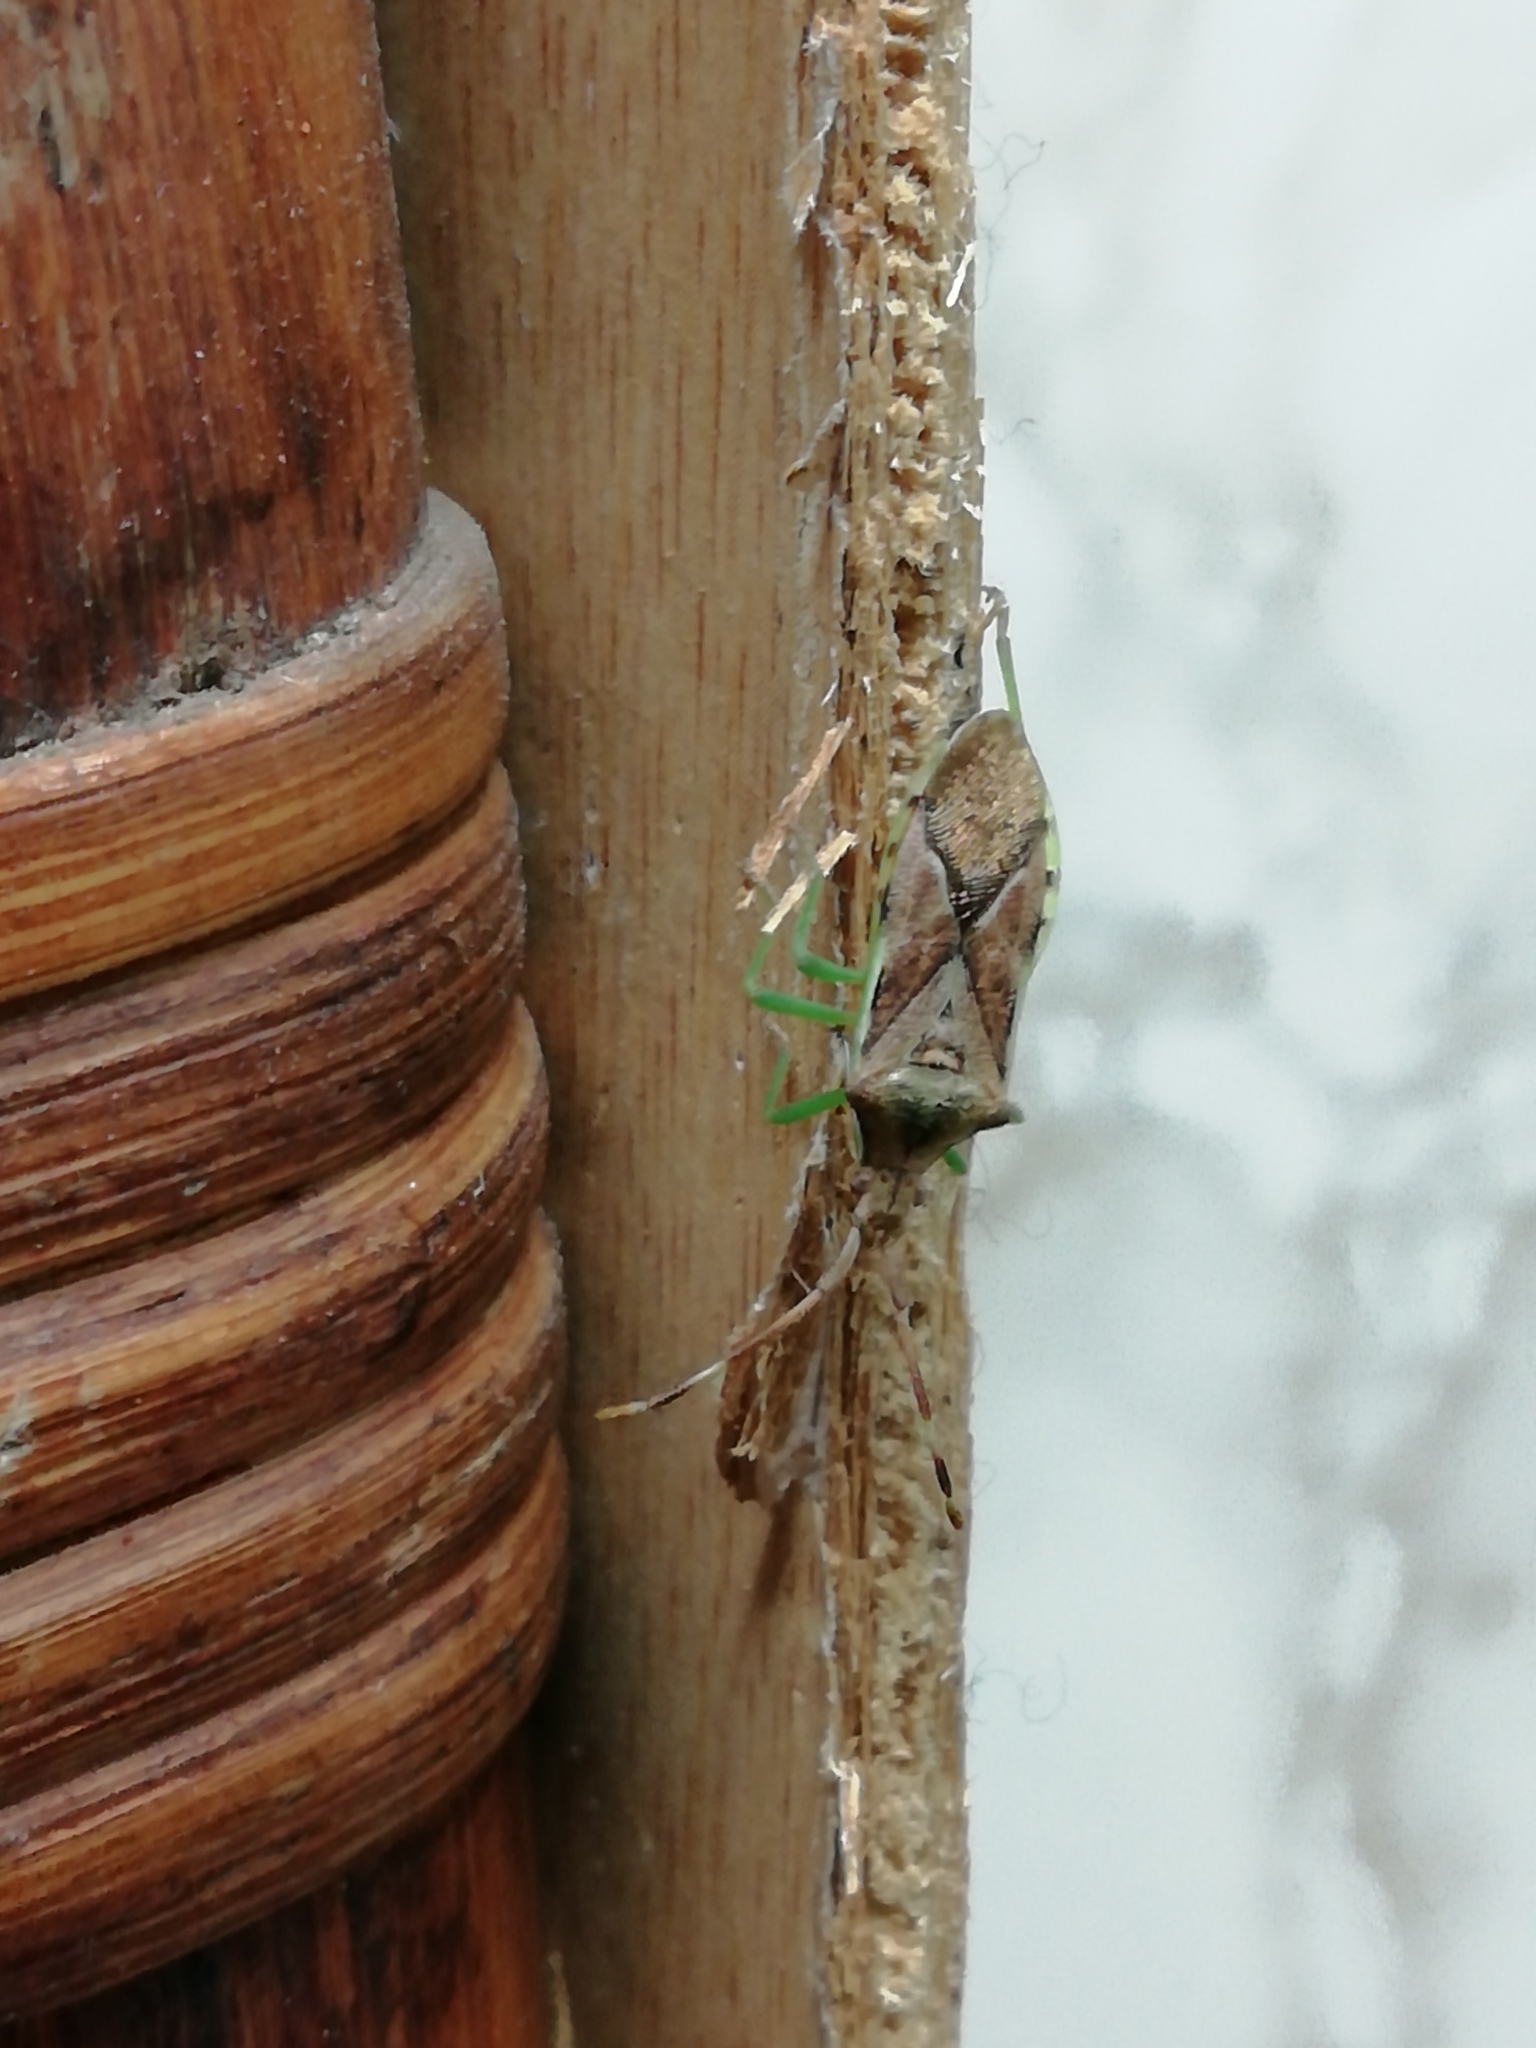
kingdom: Animalia
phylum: Arthropoda
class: Insecta
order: Hemiptera
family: Coreidae
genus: Gonocerus
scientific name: Gonocerus juniperi
